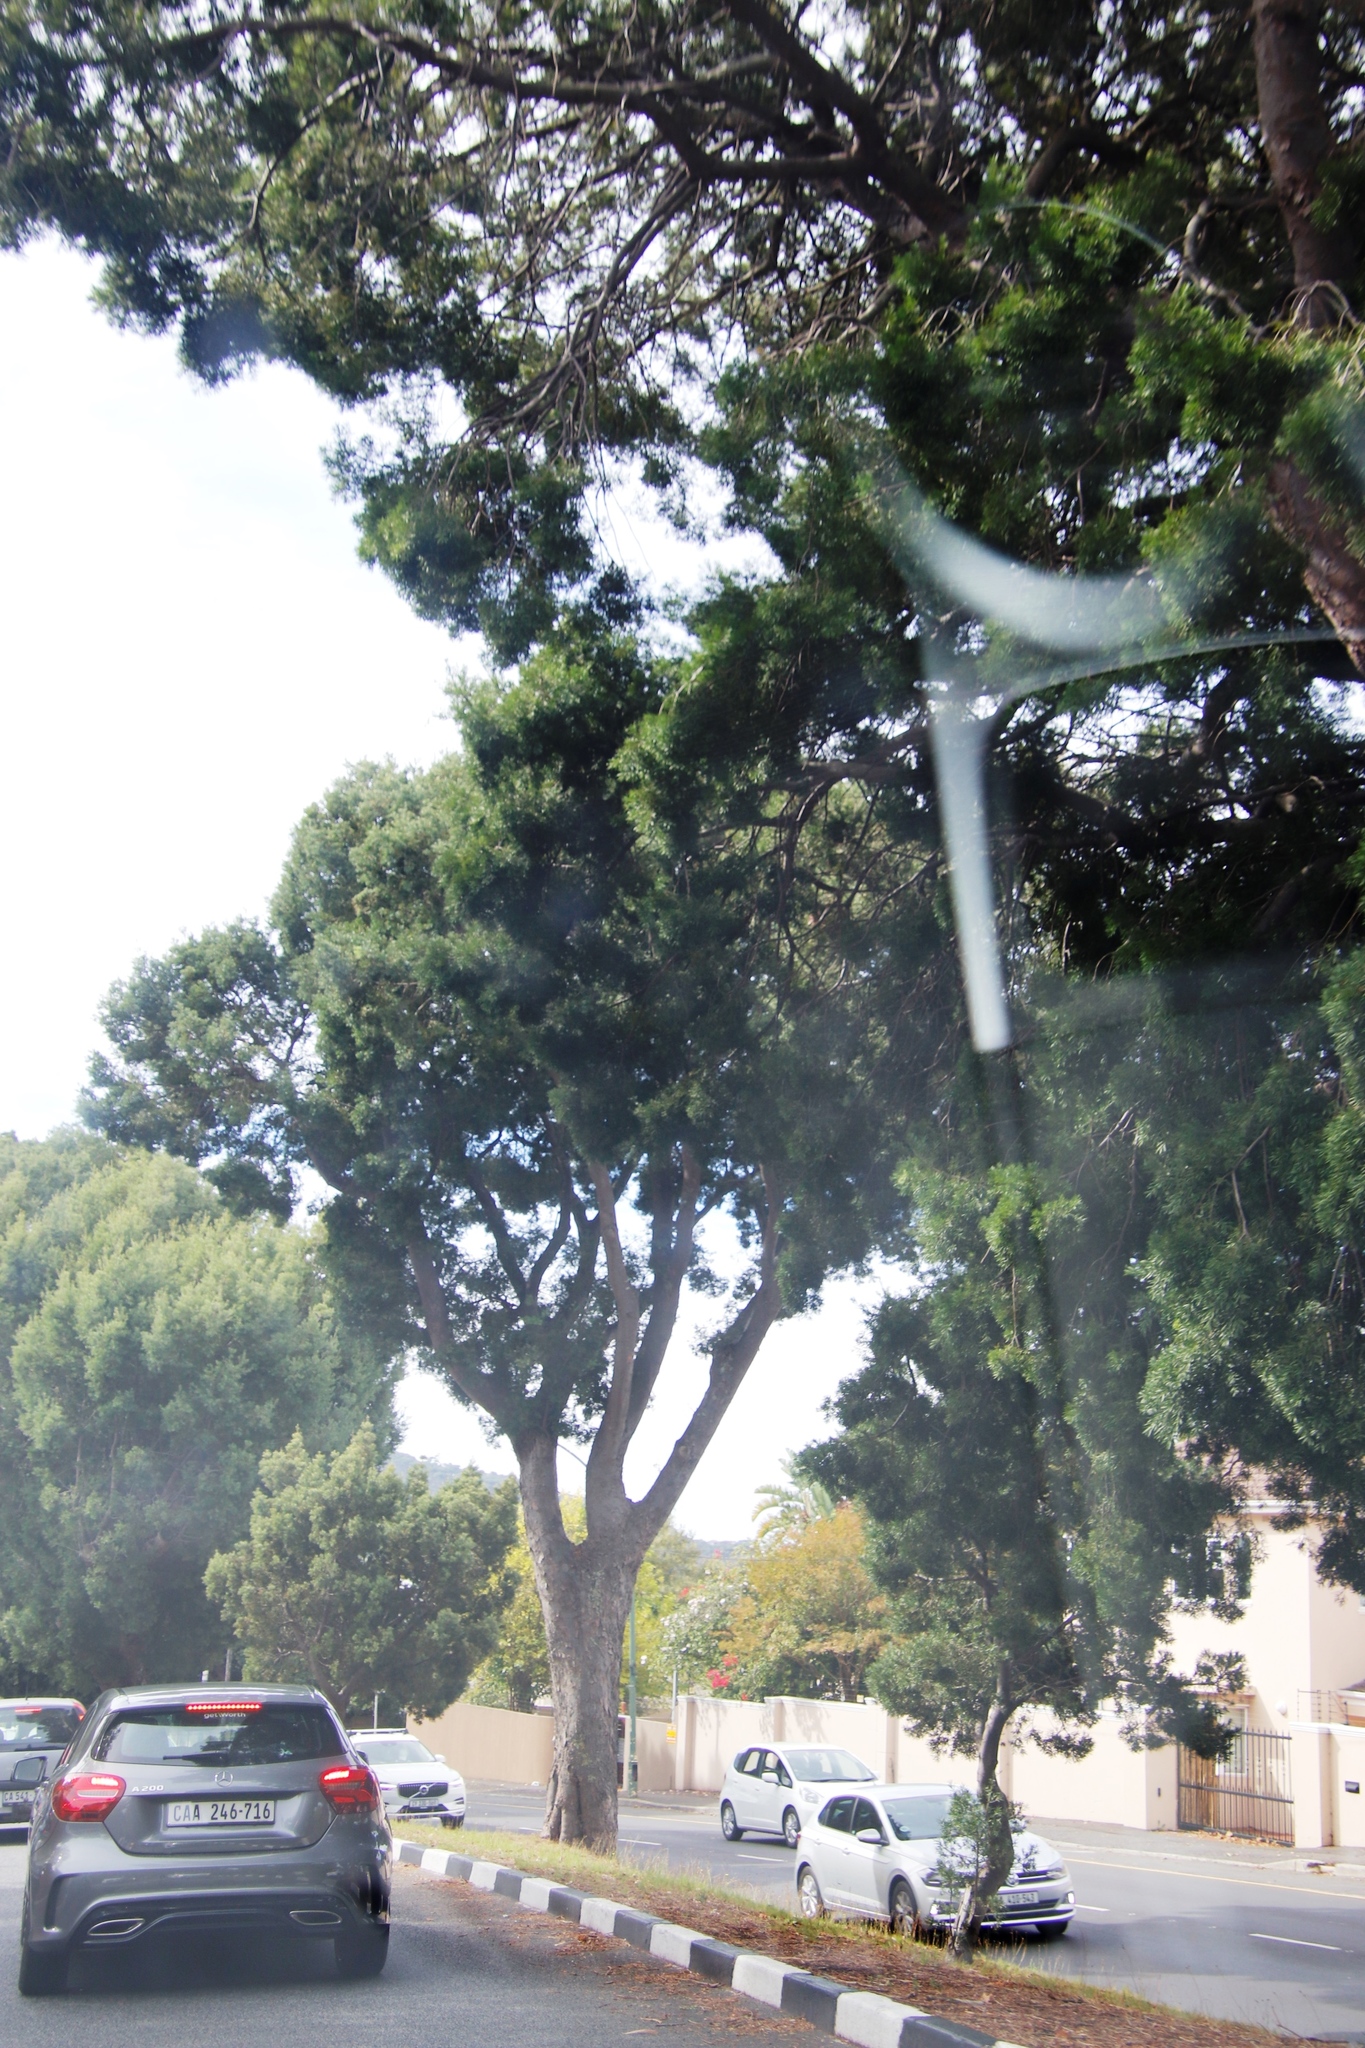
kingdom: Plantae
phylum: Tracheophyta
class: Pinopsida
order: Pinales
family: Podocarpaceae
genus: Afrocarpus
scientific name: Afrocarpus falcatus
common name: Bastard yellowwood
